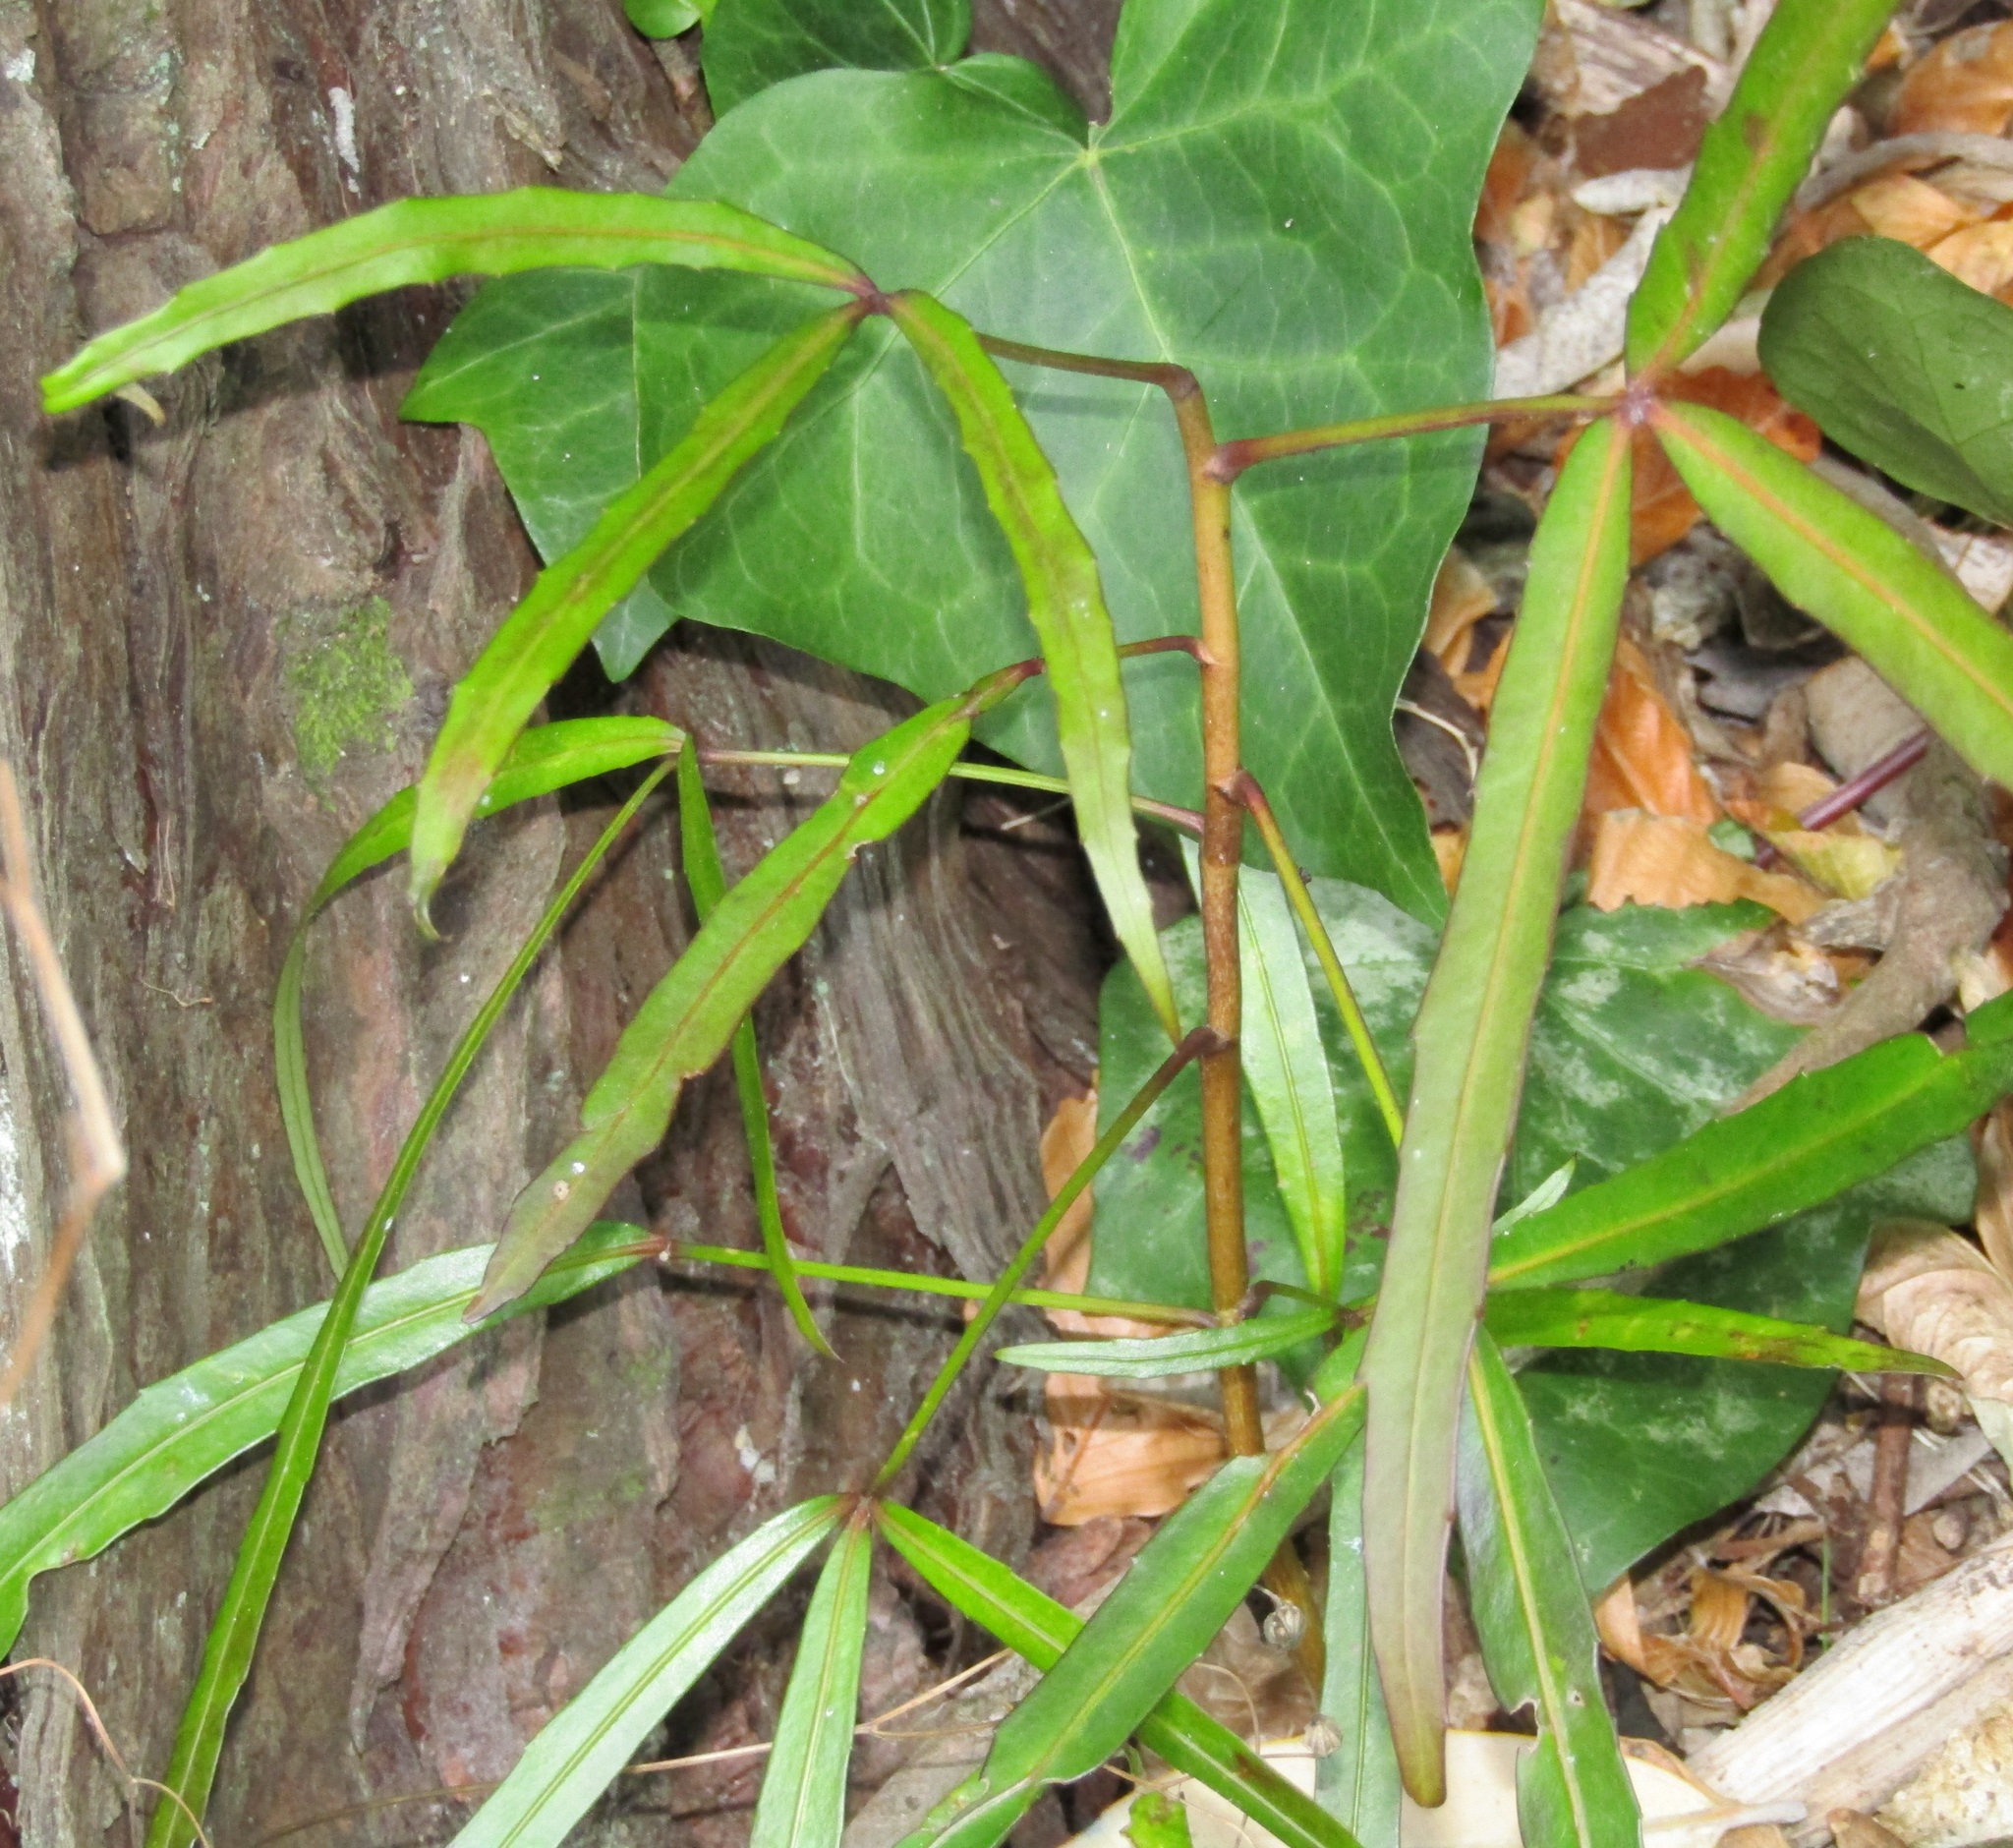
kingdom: Plantae
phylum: Tracheophyta
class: Magnoliopsida
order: Apiales
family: Araliaceae
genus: Pseudopanax
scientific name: Pseudopanax
